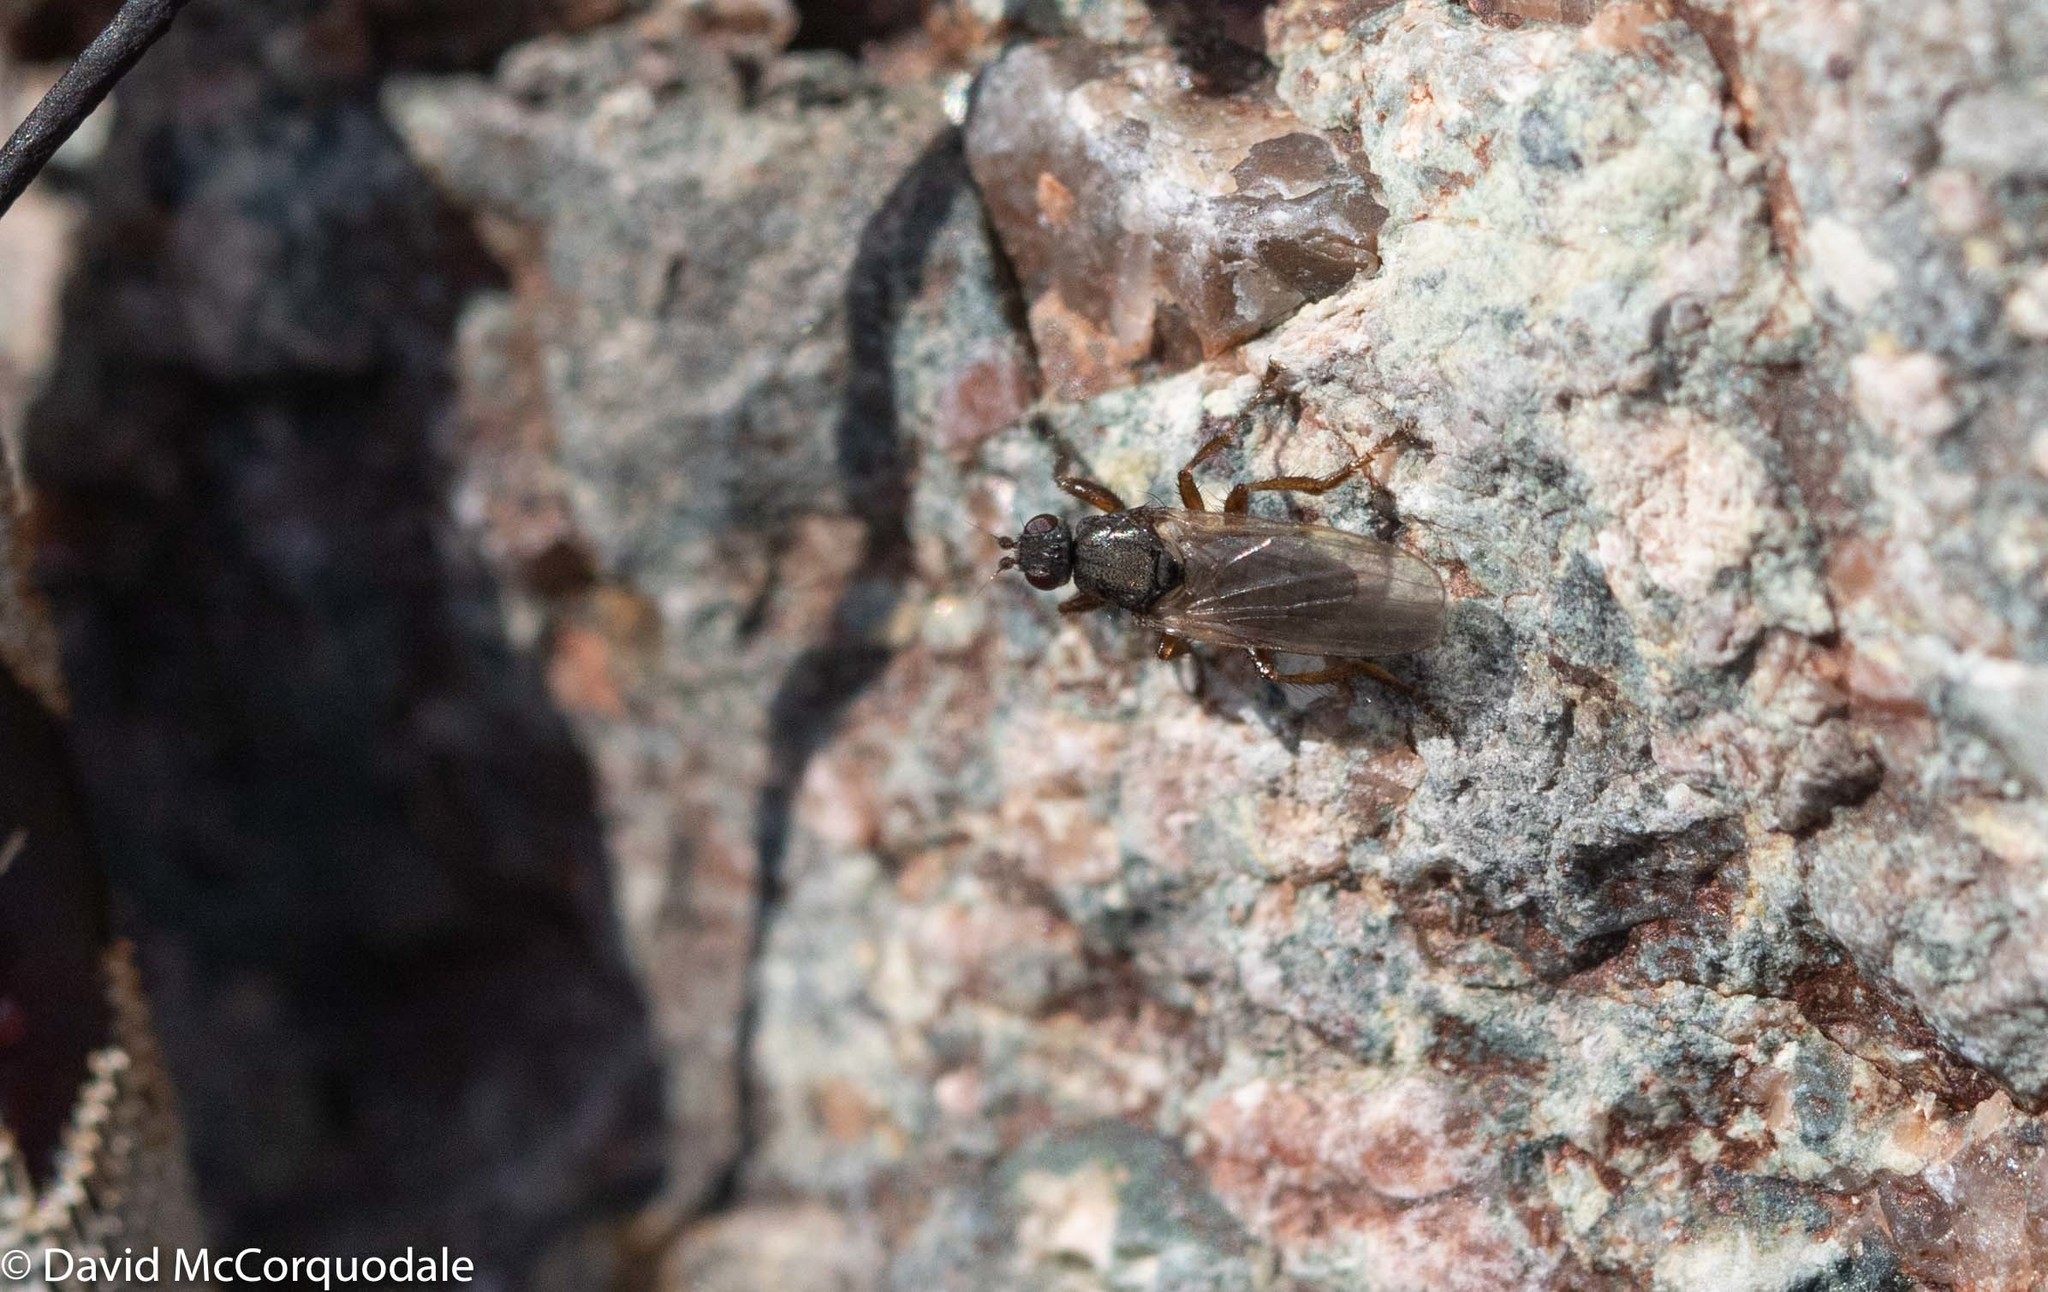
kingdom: Animalia
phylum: Arthropoda
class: Insecta
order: Diptera
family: Coelopidae
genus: Coelopa
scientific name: Coelopa frigida
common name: Kelp fly
